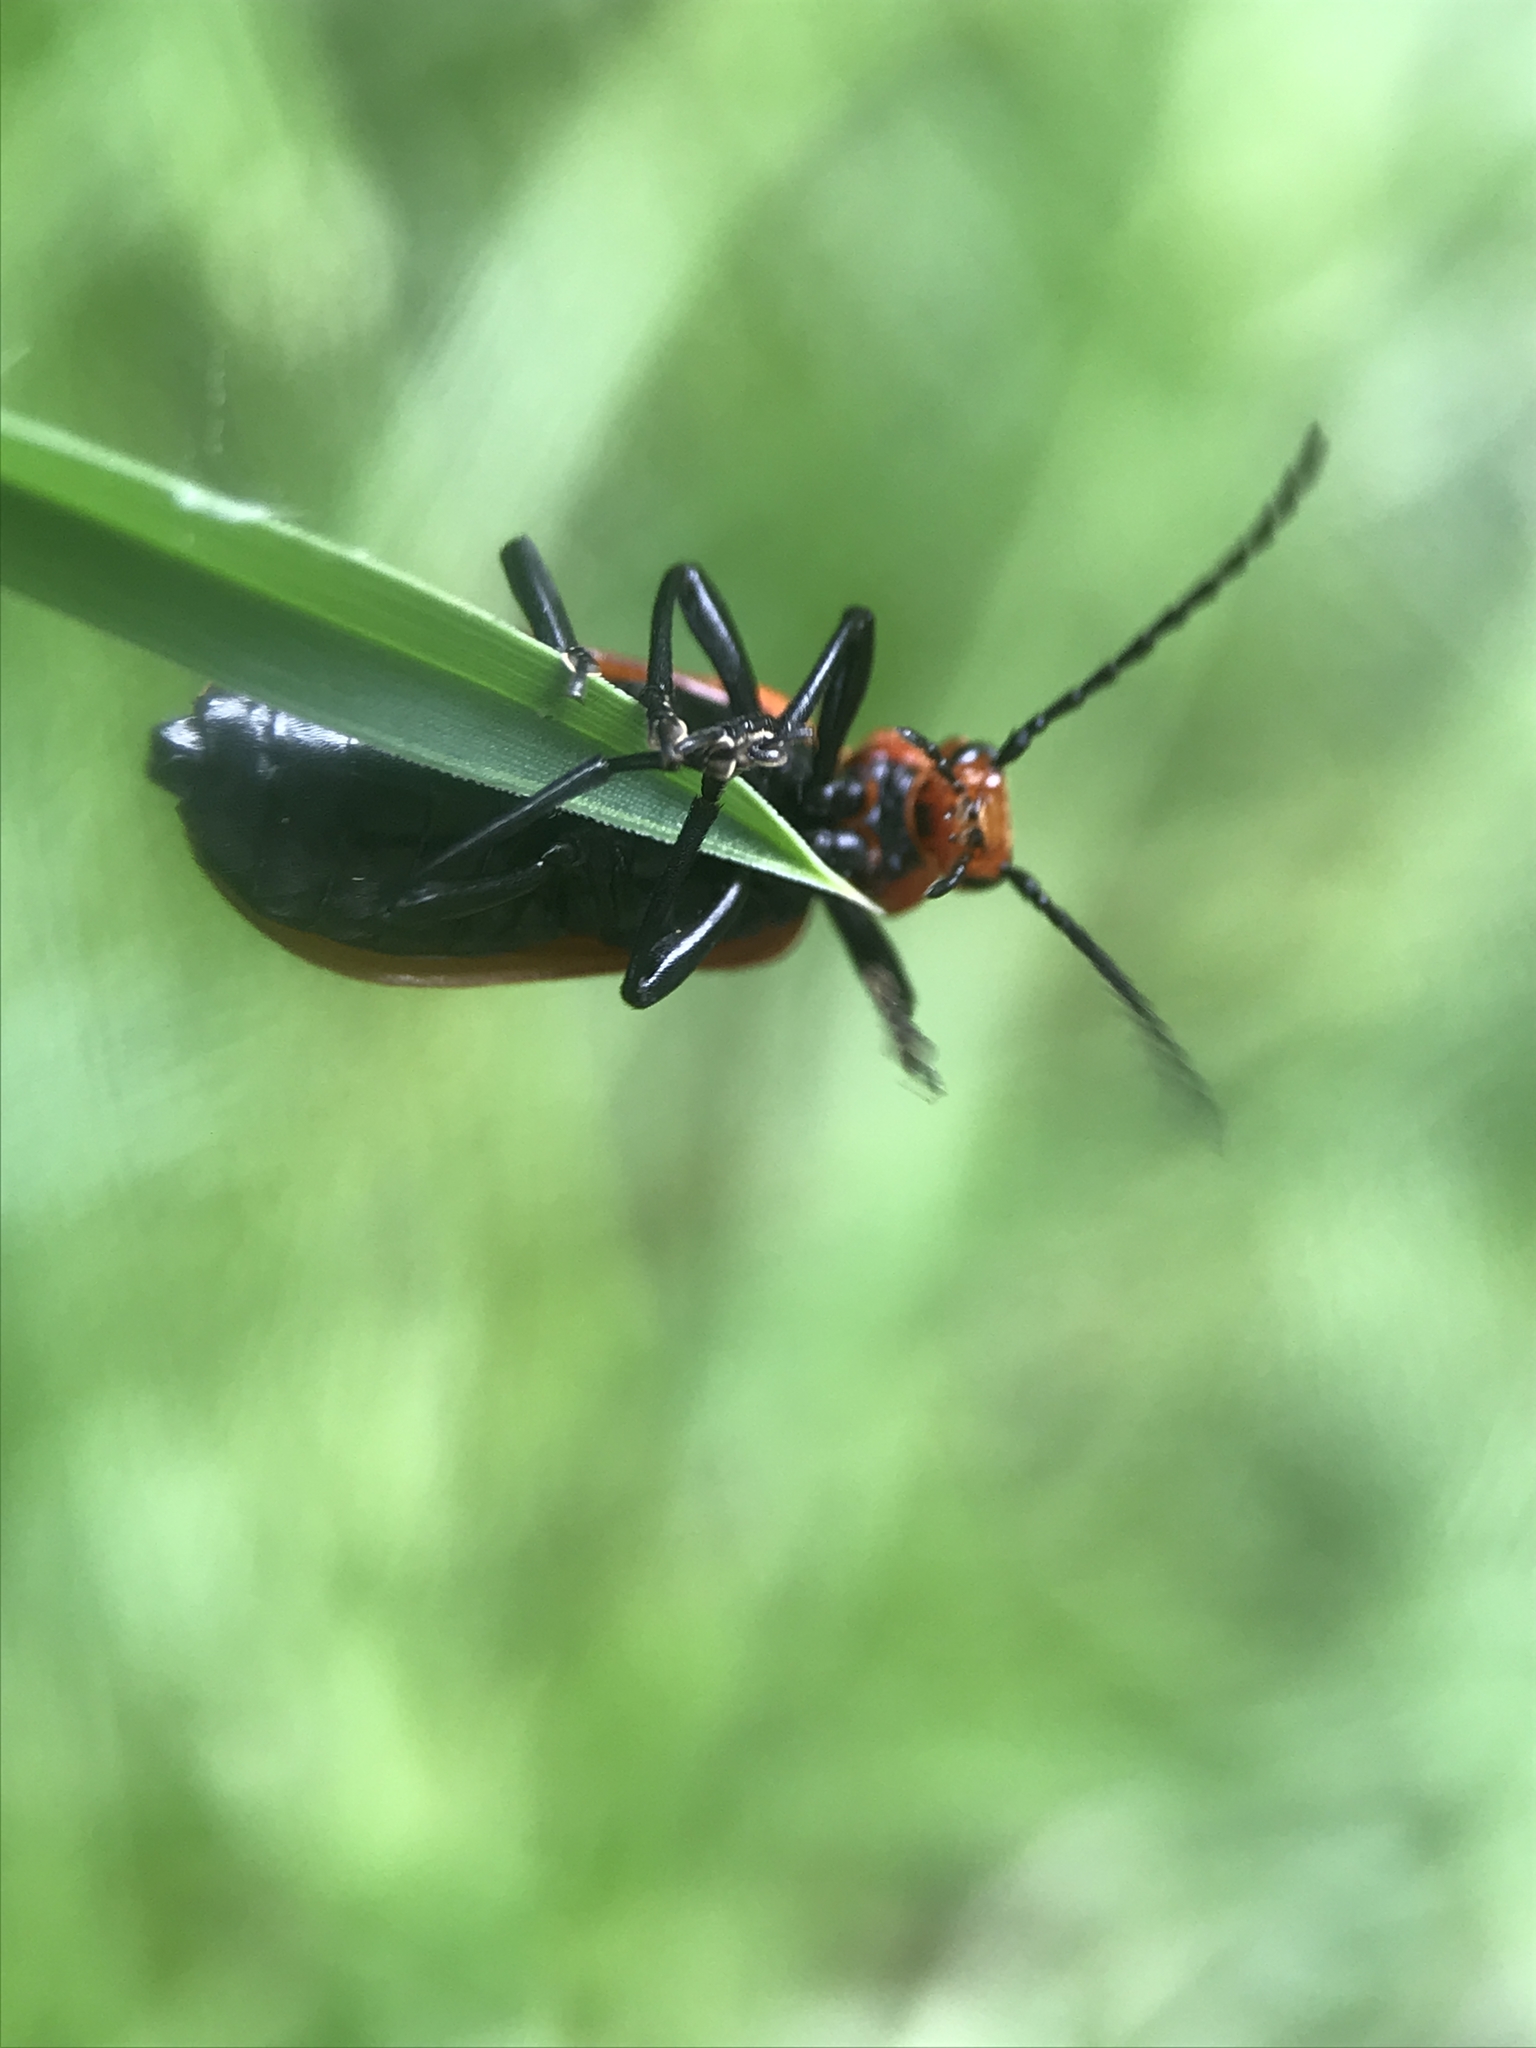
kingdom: Animalia
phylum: Arthropoda
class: Insecta
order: Coleoptera
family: Pyrochroidae
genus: Pyrochroa
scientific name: Pyrochroa serraticornis
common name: Red-headed cardinal beetle
